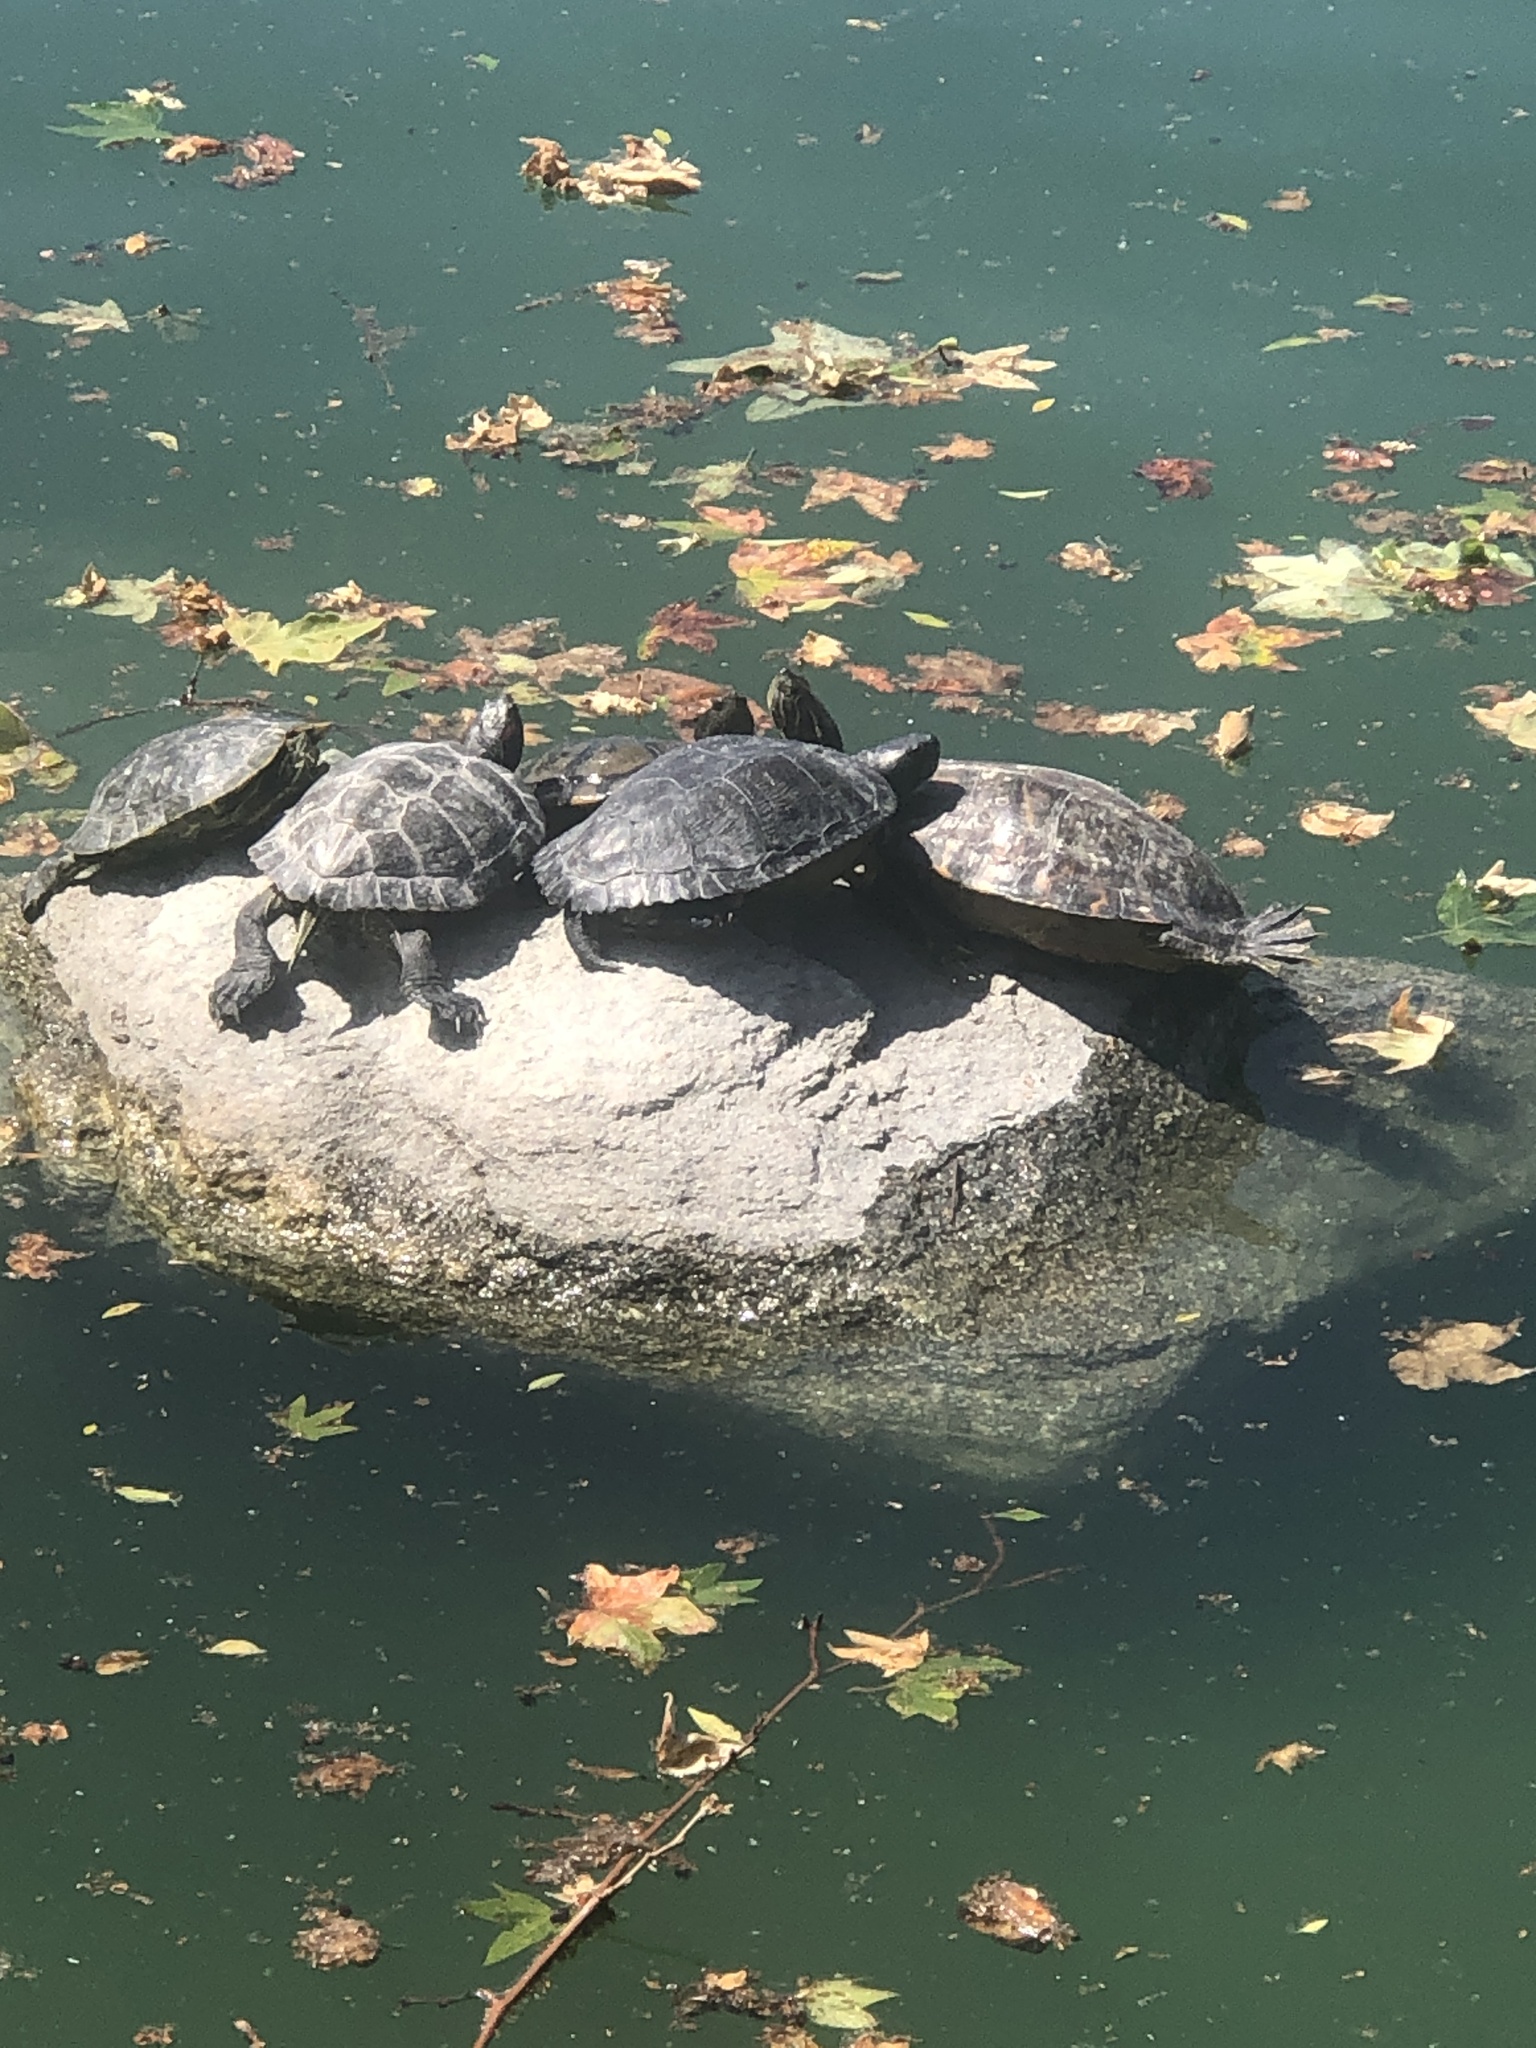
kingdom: Animalia
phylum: Chordata
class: Testudines
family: Emydidae
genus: Trachemys
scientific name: Trachemys scripta
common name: Slider
